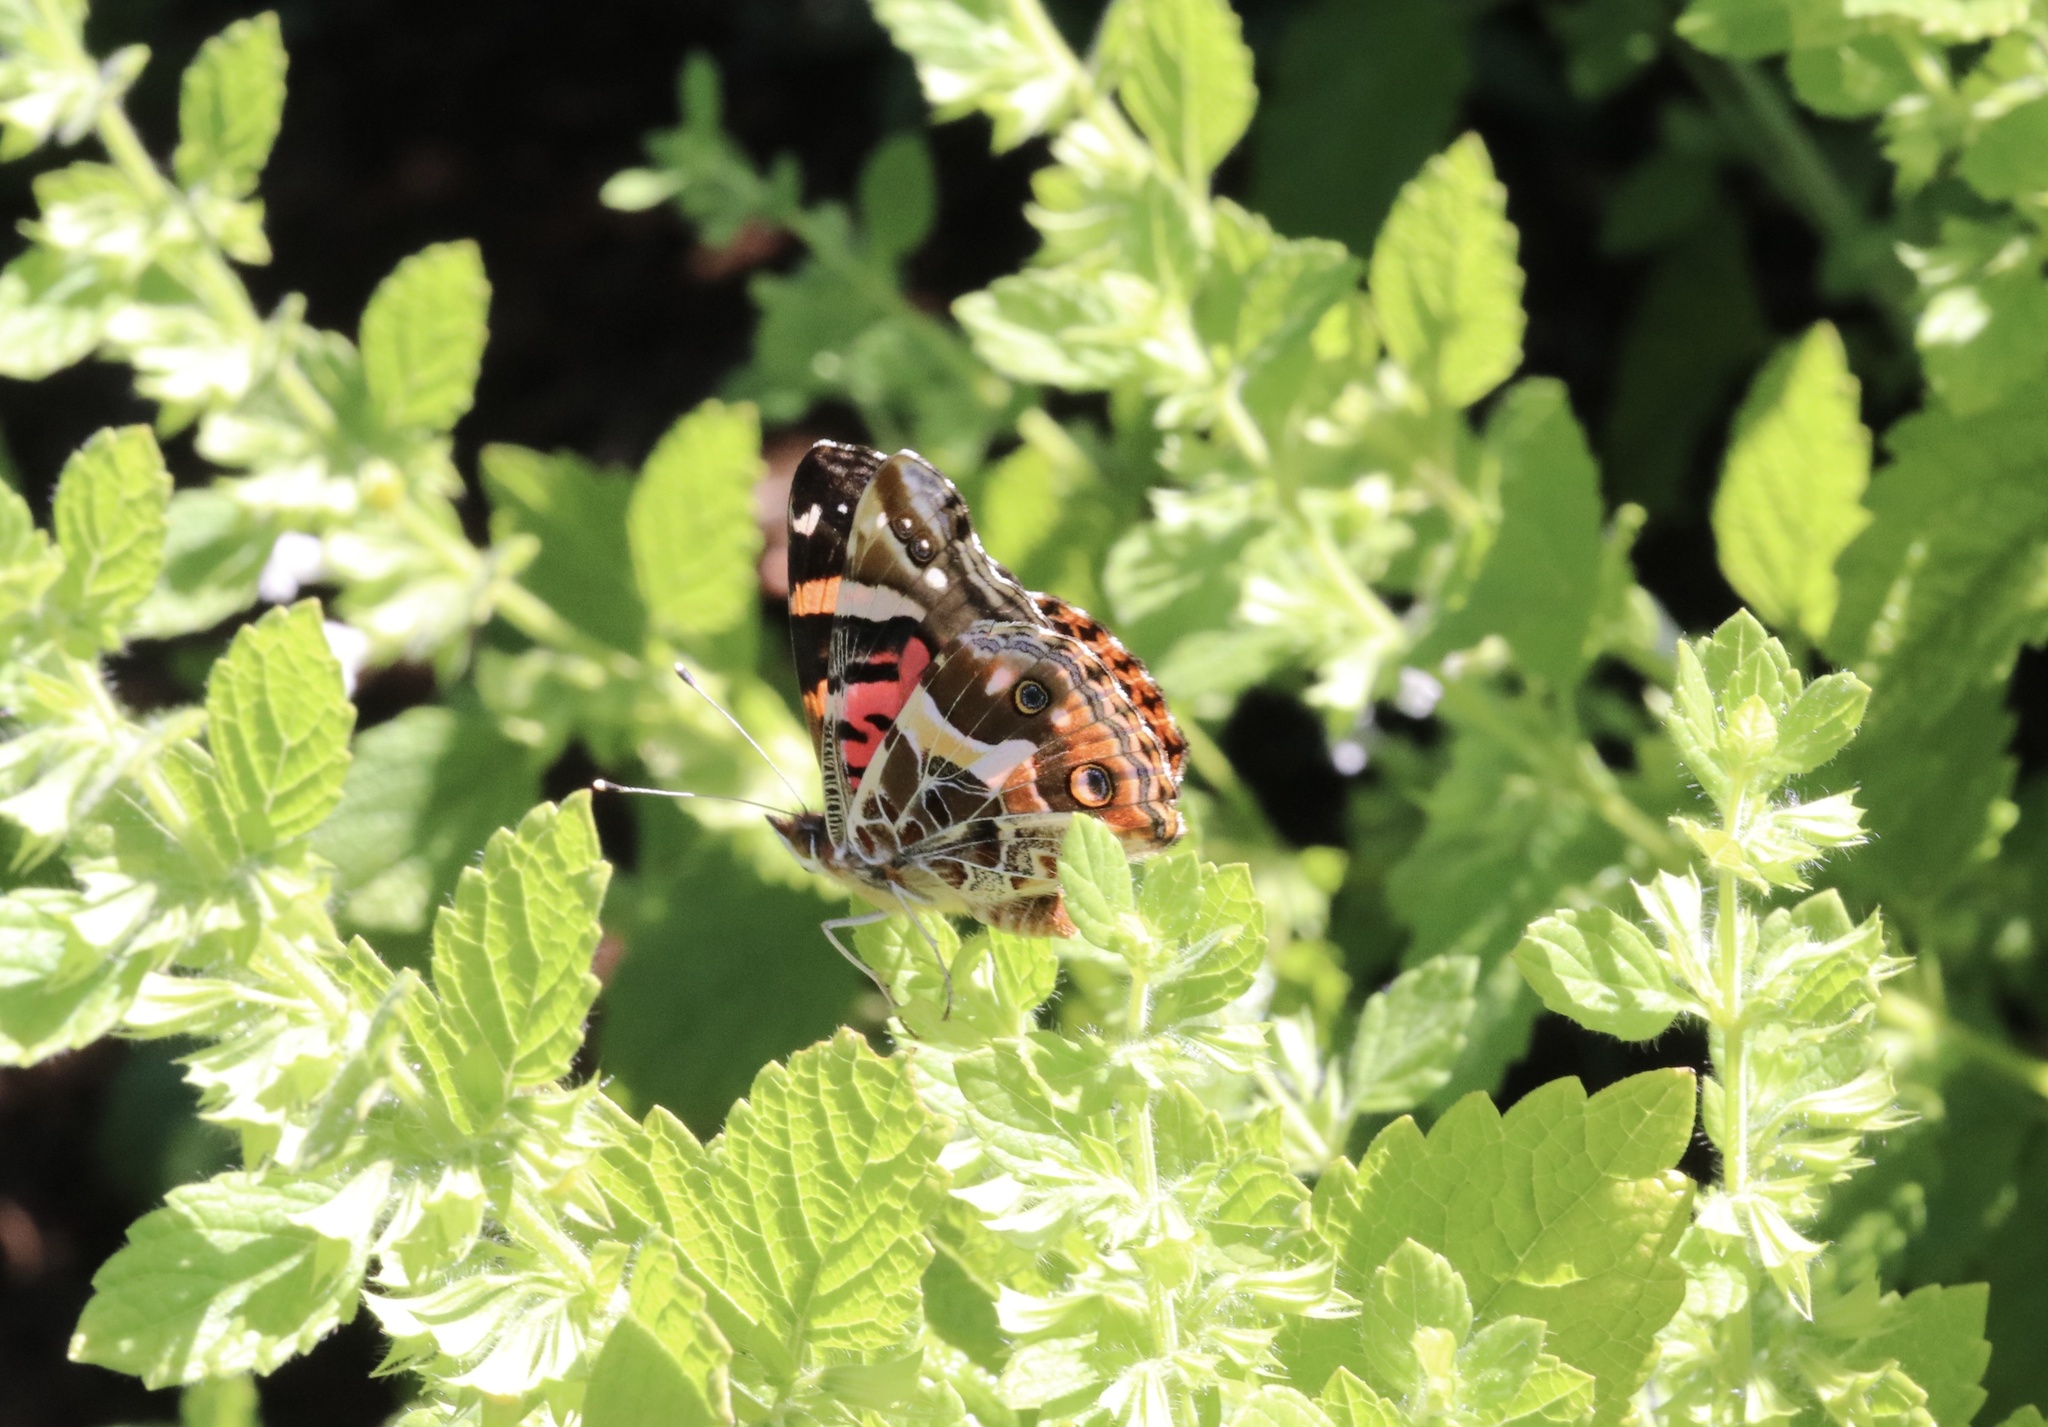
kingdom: Animalia
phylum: Arthropoda
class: Insecta
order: Lepidoptera
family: Nymphalidae
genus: Vanessa
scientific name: Vanessa terpsichore
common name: Chilean lady
